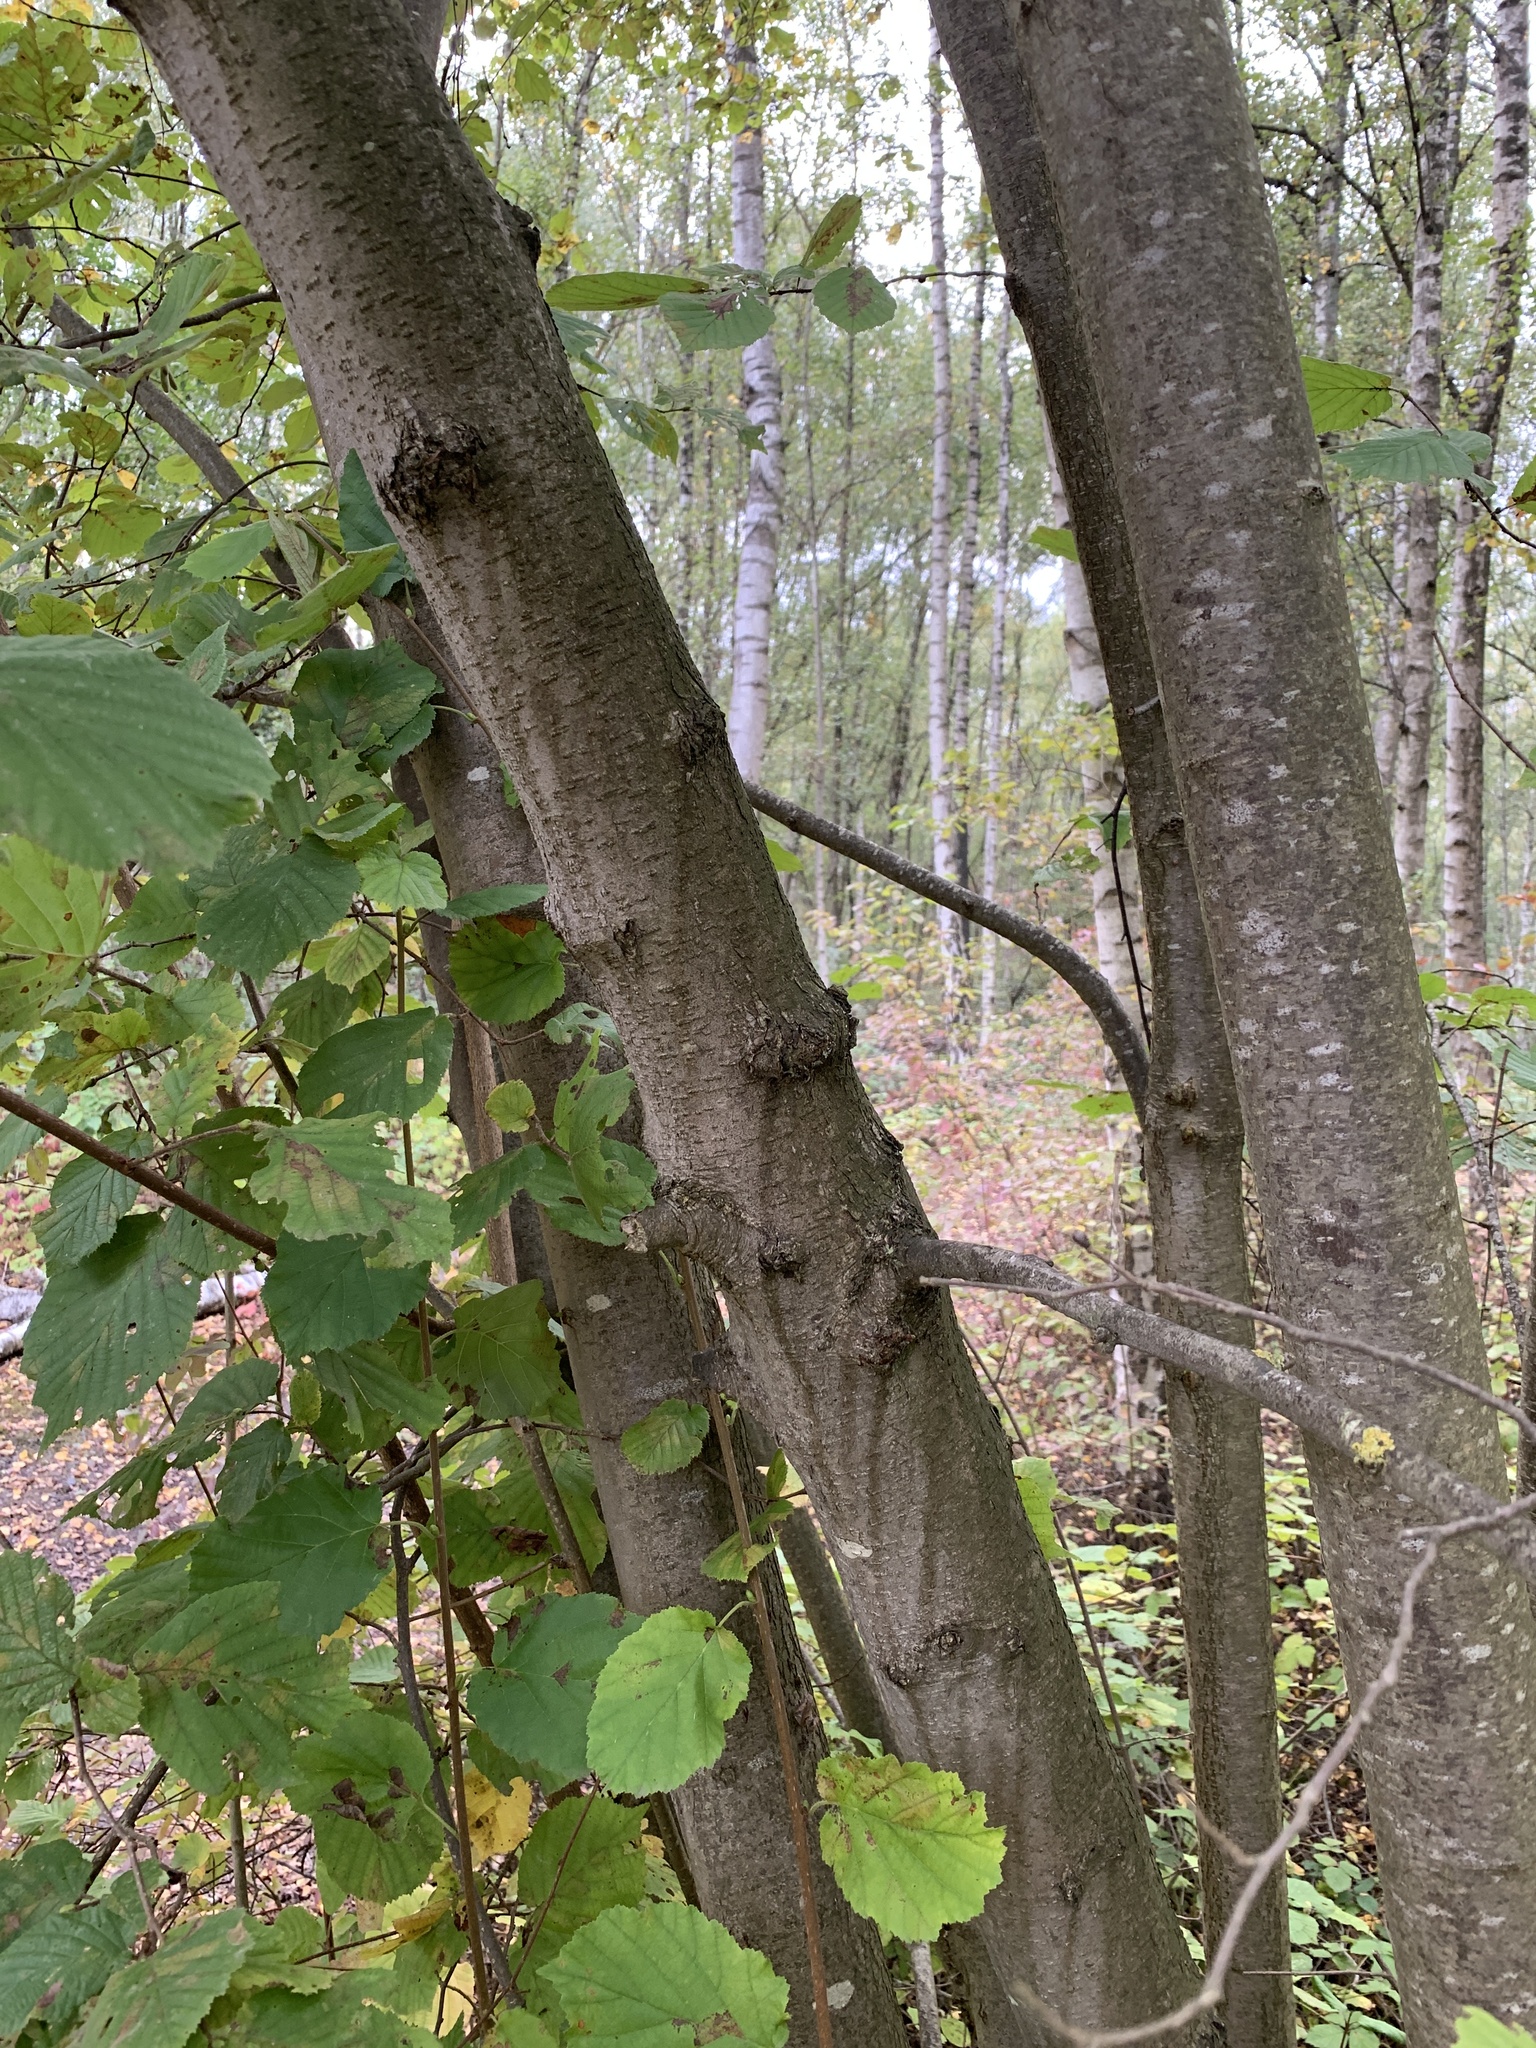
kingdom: Plantae
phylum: Tracheophyta
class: Magnoliopsida
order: Fagales
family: Betulaceae
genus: Corylus
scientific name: Corylus avellana
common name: European hazel
